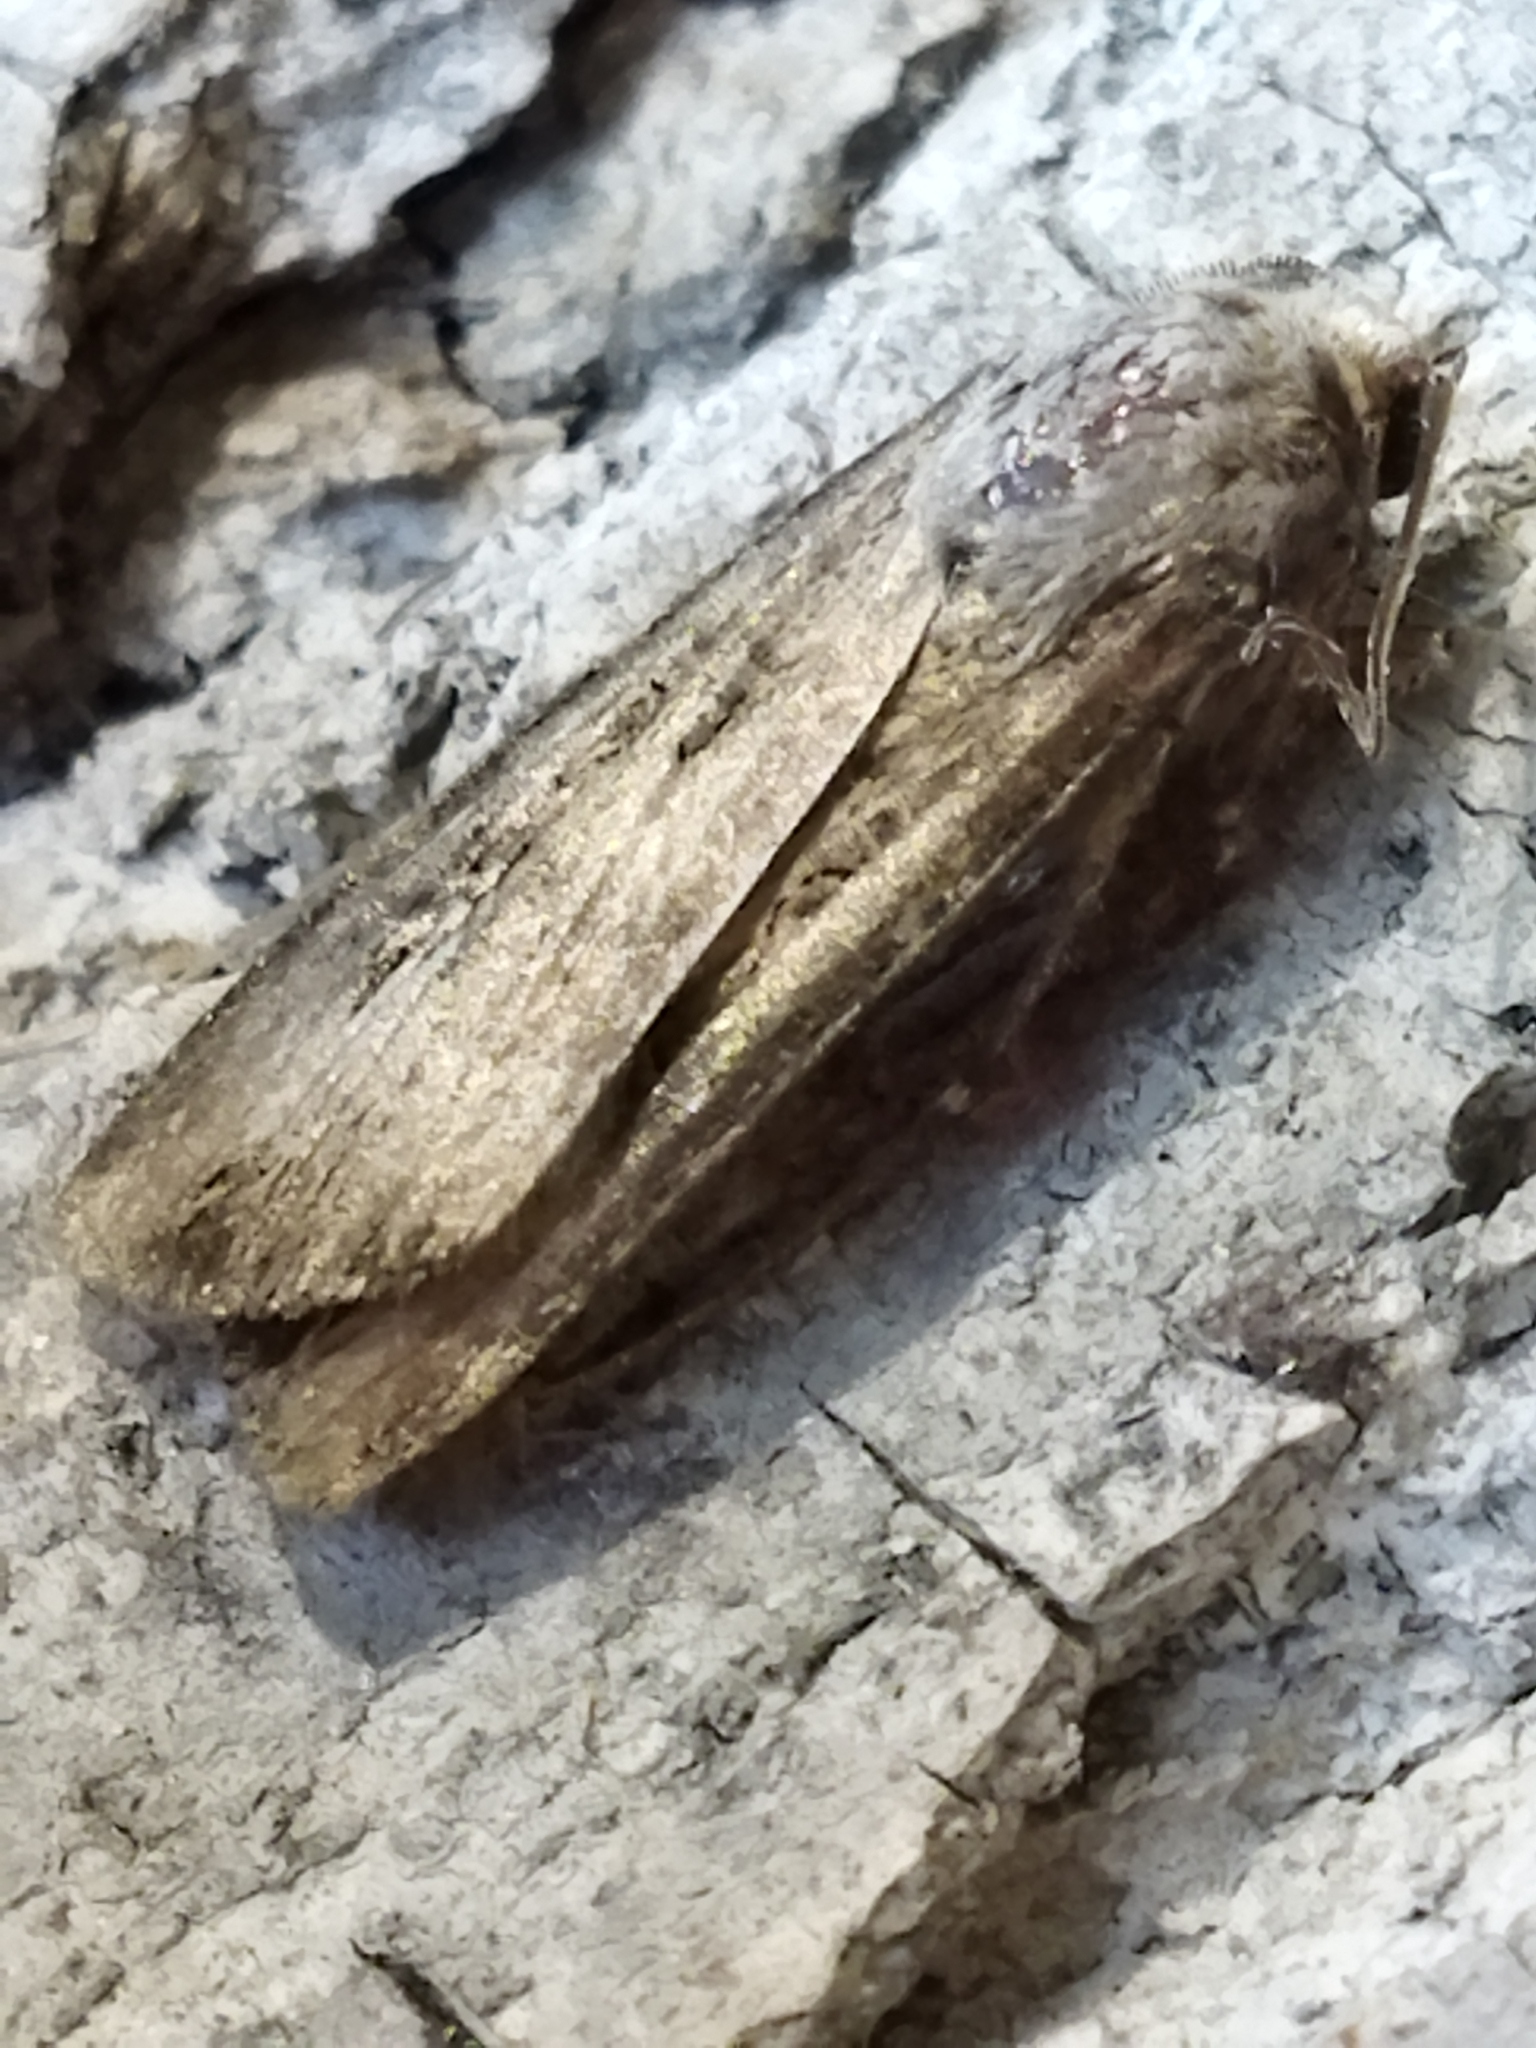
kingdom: Animalia
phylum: Arthropoda
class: Insecta
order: Lepidoptera
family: Noctuidae
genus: Agrotis
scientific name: Agrotis ipsilon
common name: Dark sword-grass
